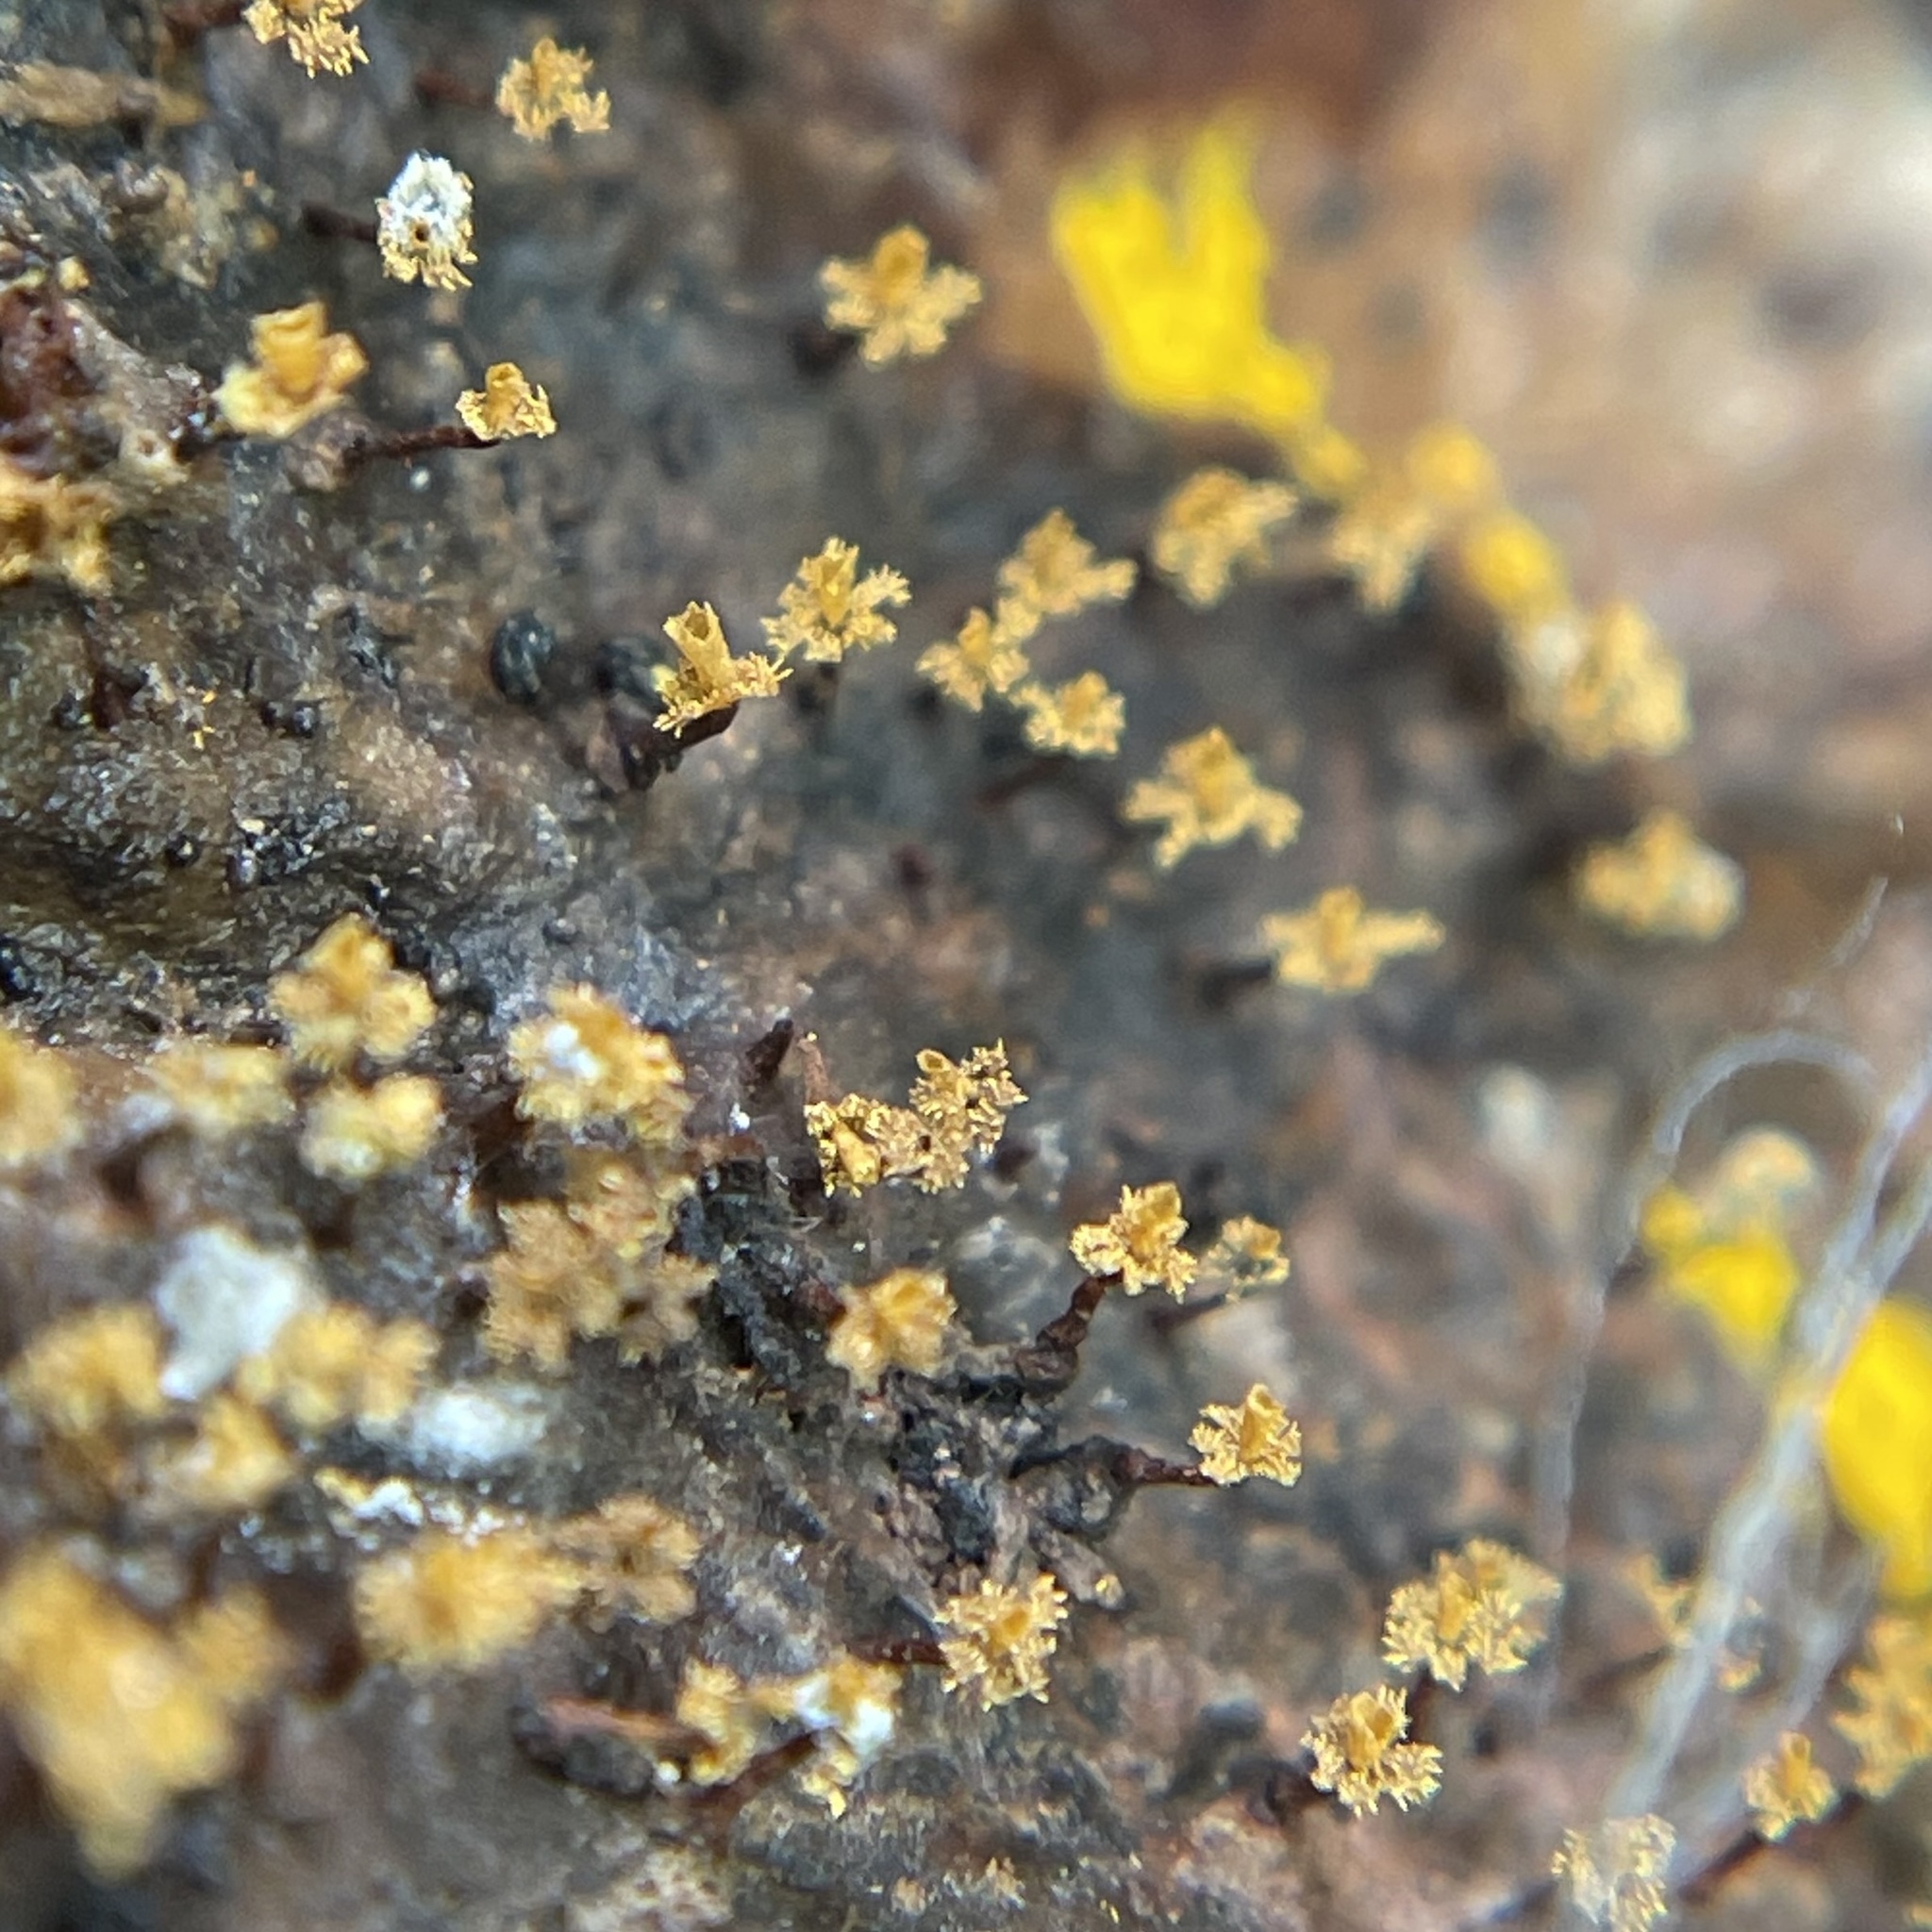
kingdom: Protozoa
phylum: Mycetozoa
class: Myxomycetes
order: Physarales
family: Physaraceae
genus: Physarella
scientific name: Physarella oblonga
